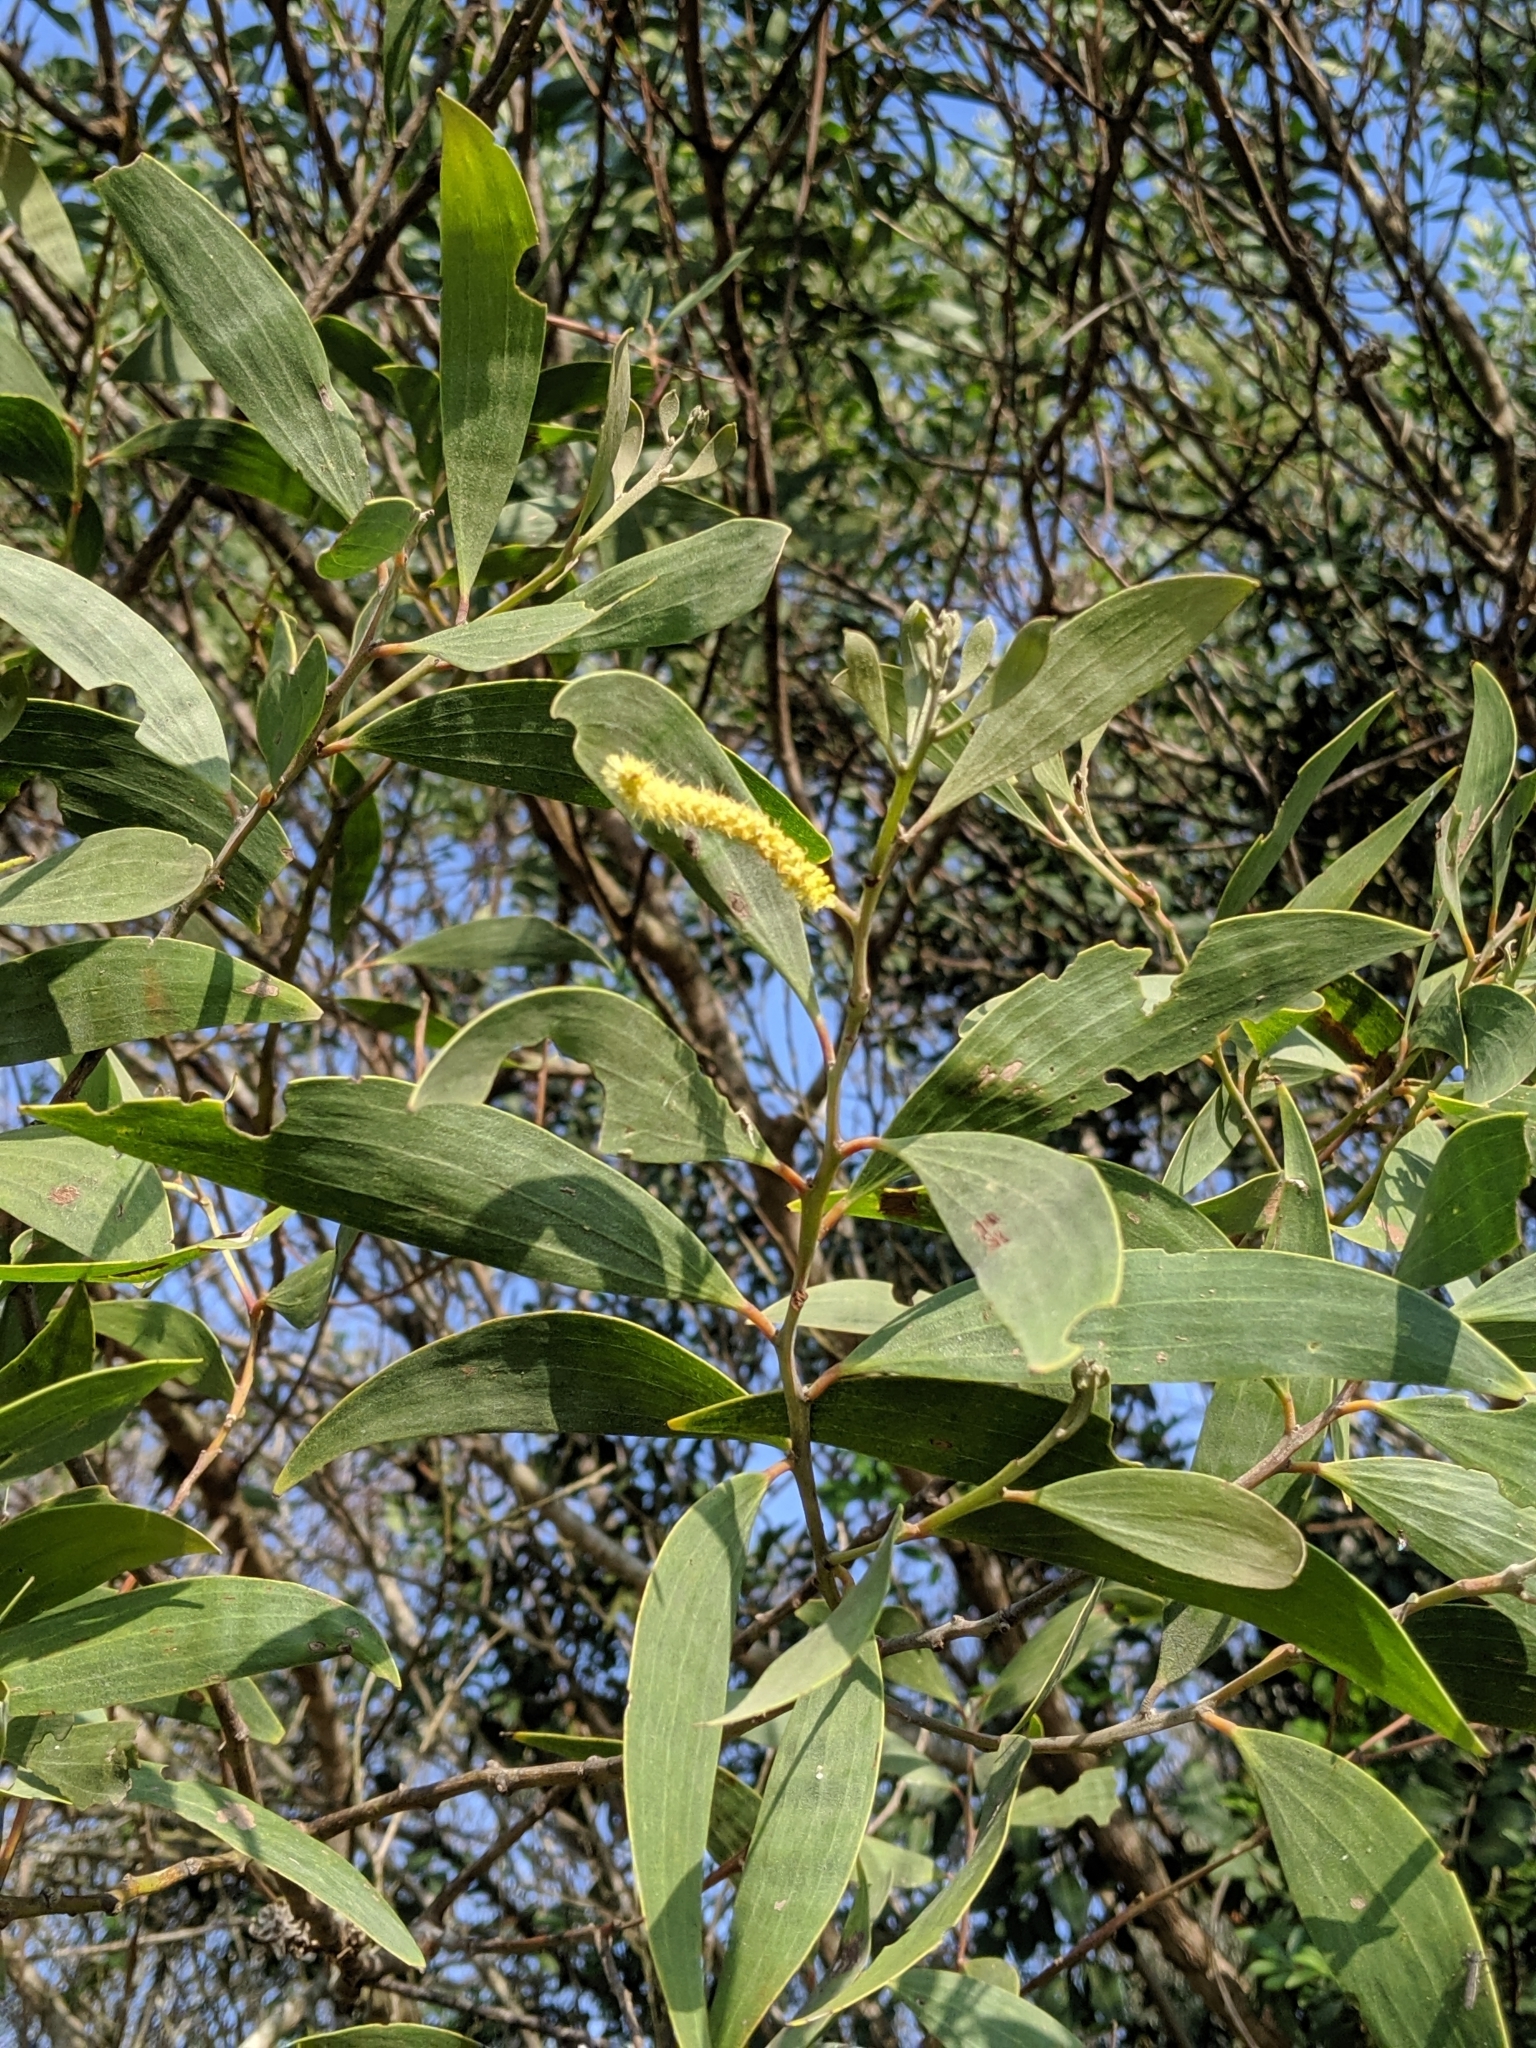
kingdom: Plantae
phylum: Tracheophyta
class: Magnoliopsida
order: Fabales
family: Fabaceae
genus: Acacia
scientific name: Acacia leiocalyx
